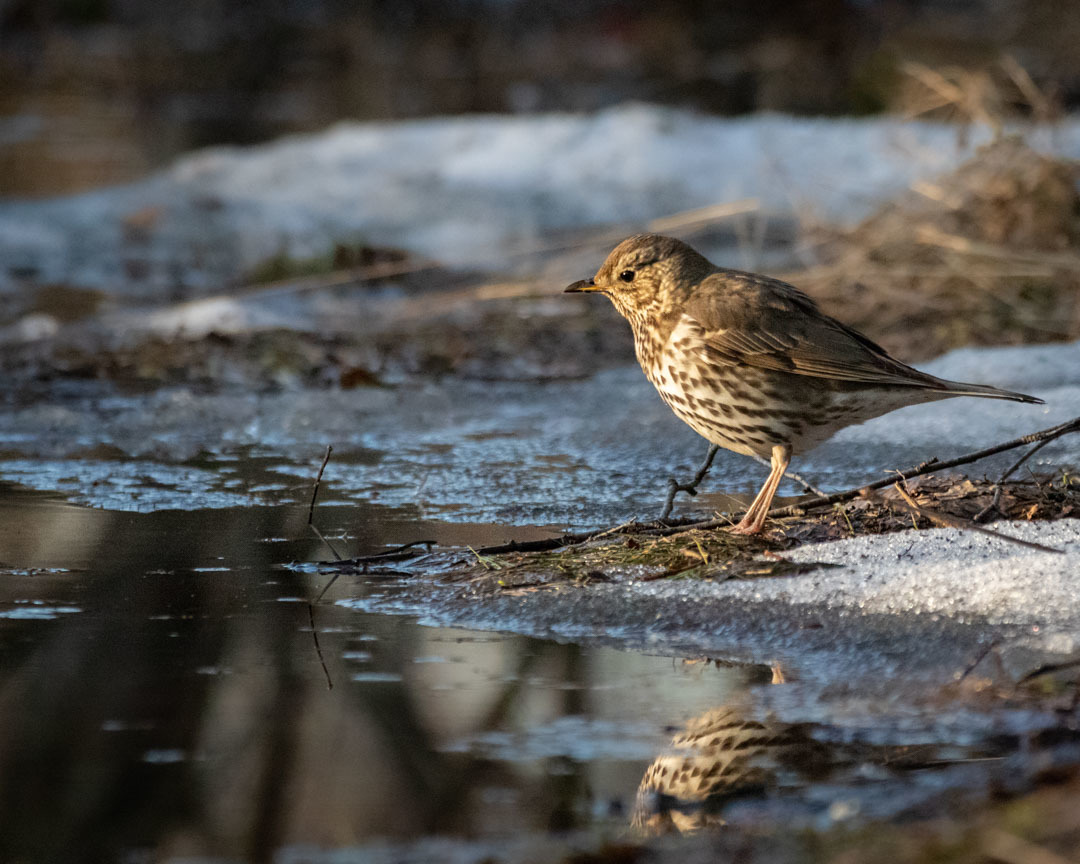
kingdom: Animalia
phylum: Chordata
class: Aves
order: Passeriformes
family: Turdidae
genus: Turdus
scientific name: Turdus philomelos
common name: Song thrush
